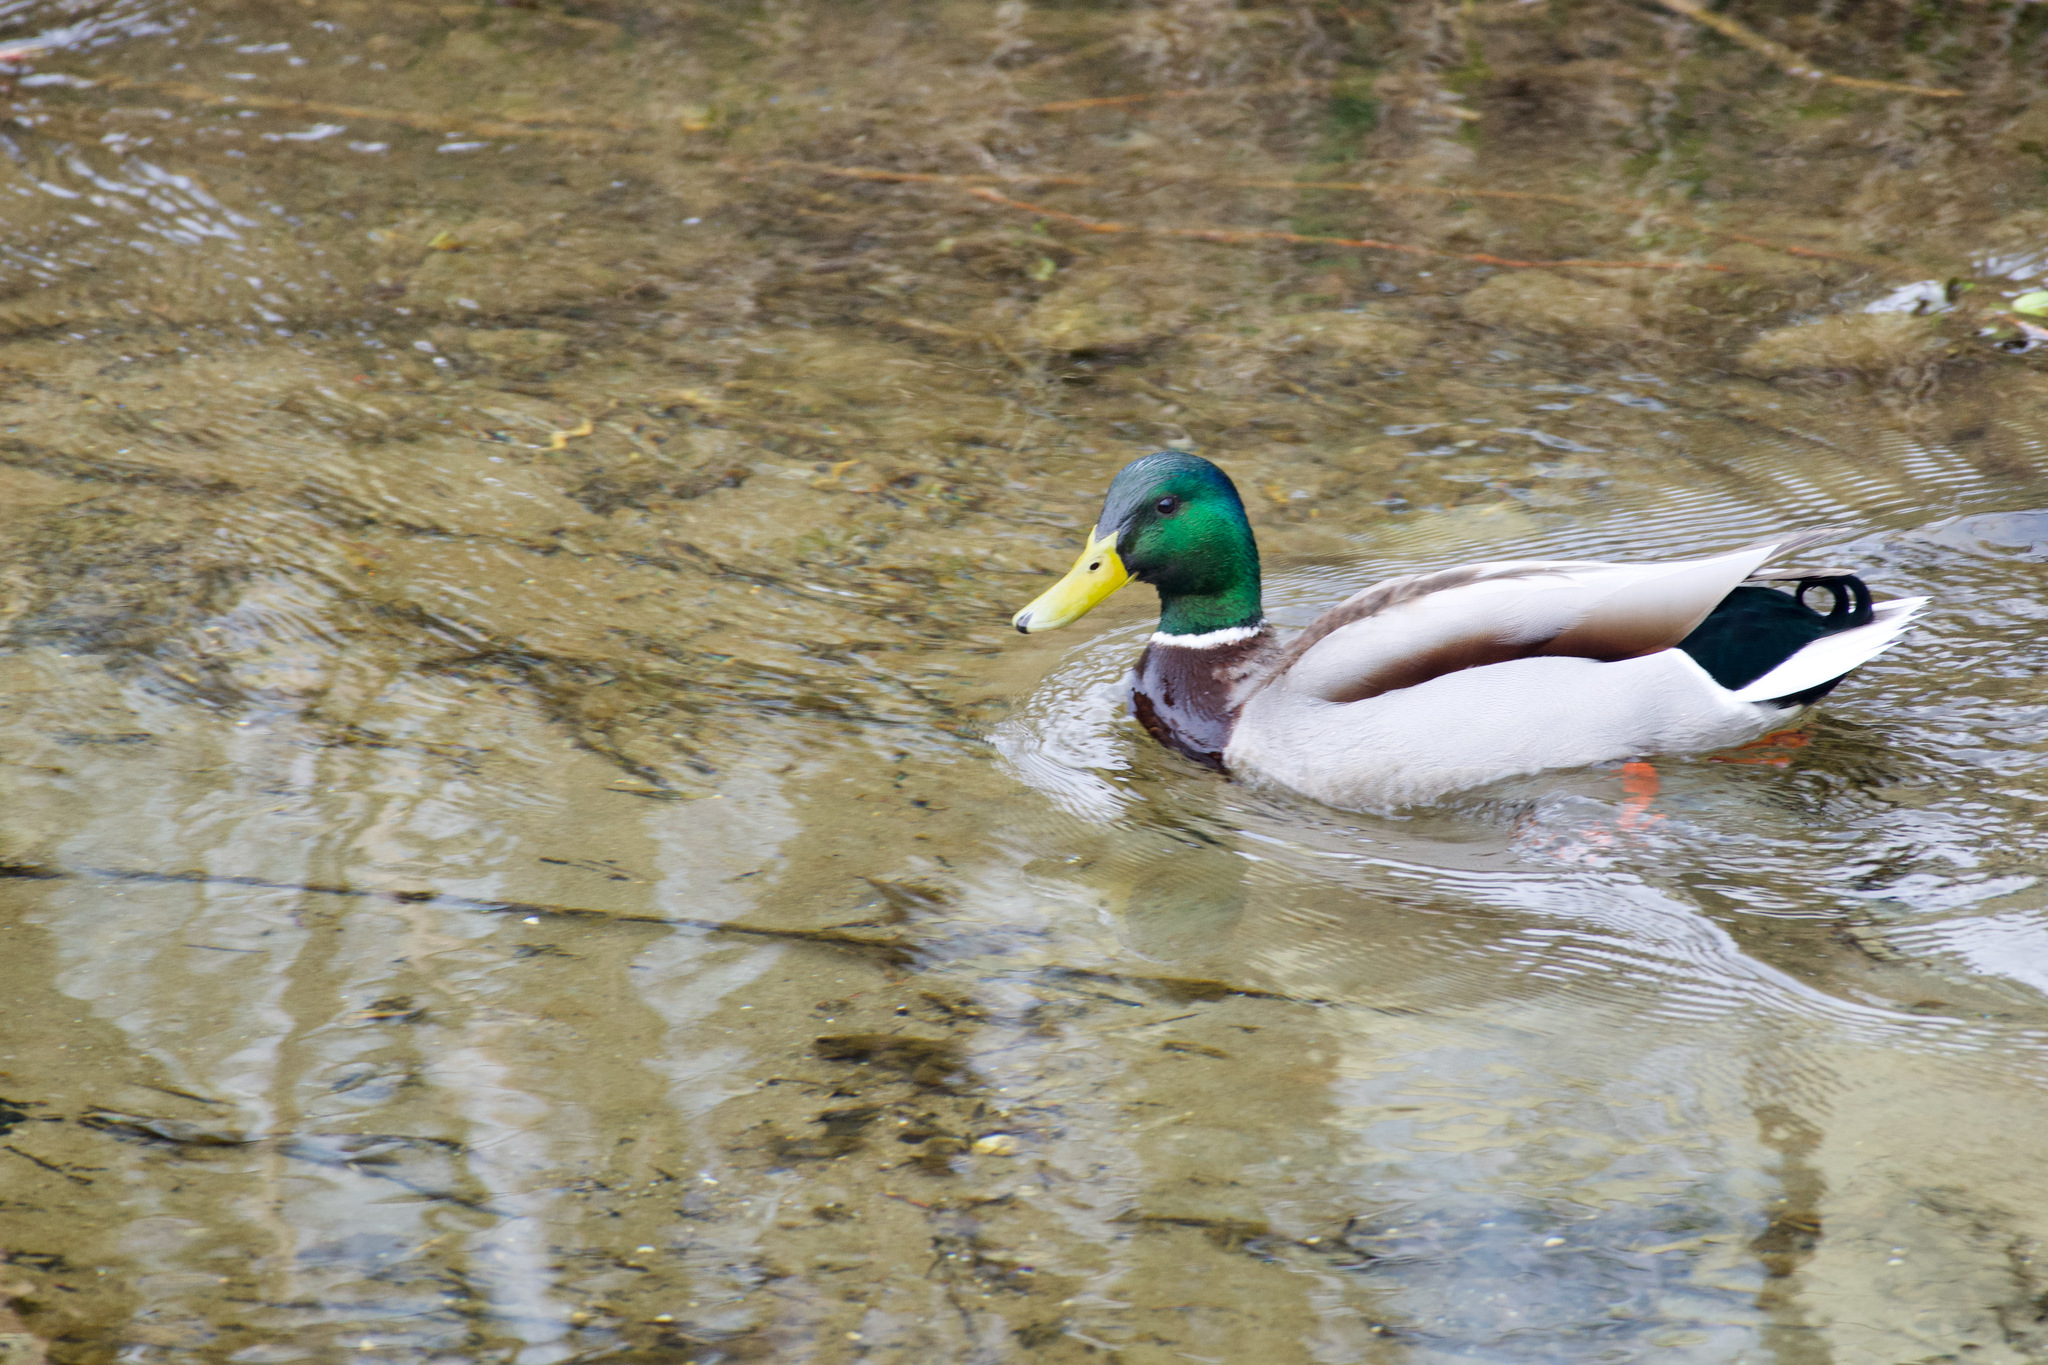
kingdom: Animalia
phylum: Chordata
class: Aves
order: Anseriformes
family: Anatidae
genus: Anas
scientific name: Anas platyrhynchos
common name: Mallard
